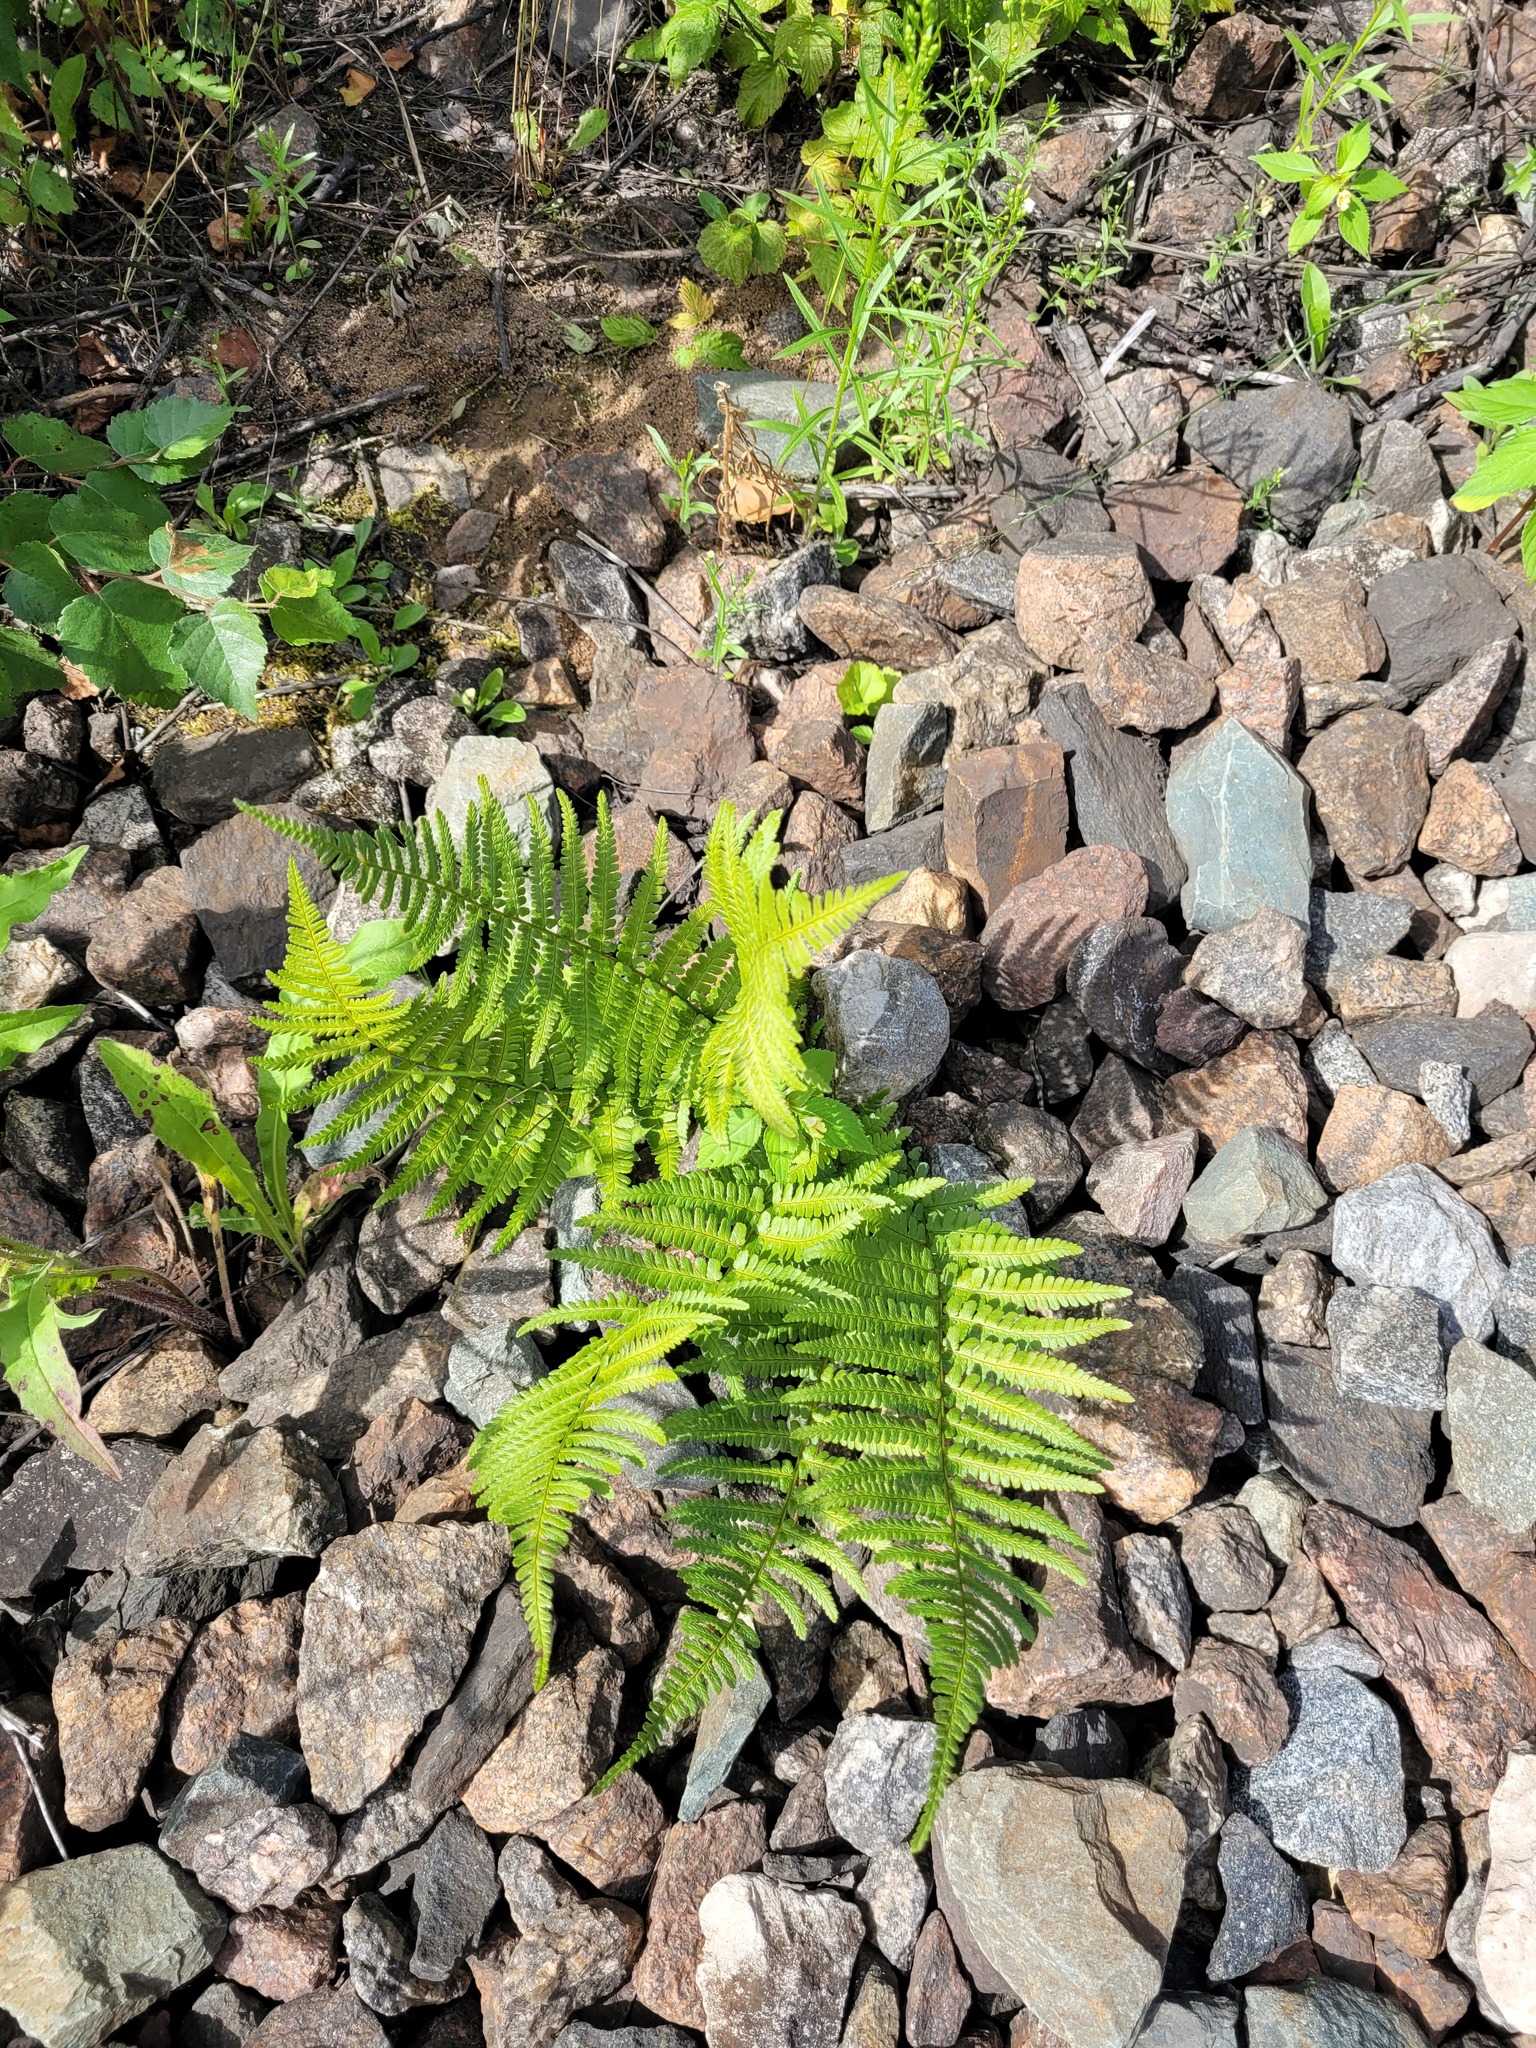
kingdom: Plantae
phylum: Tracheophyta
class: Polypodiopsida
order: Polypodiales
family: Dryopteridaceae
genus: Dryopteris
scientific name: Dryopteris filix-mas
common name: Male fern
